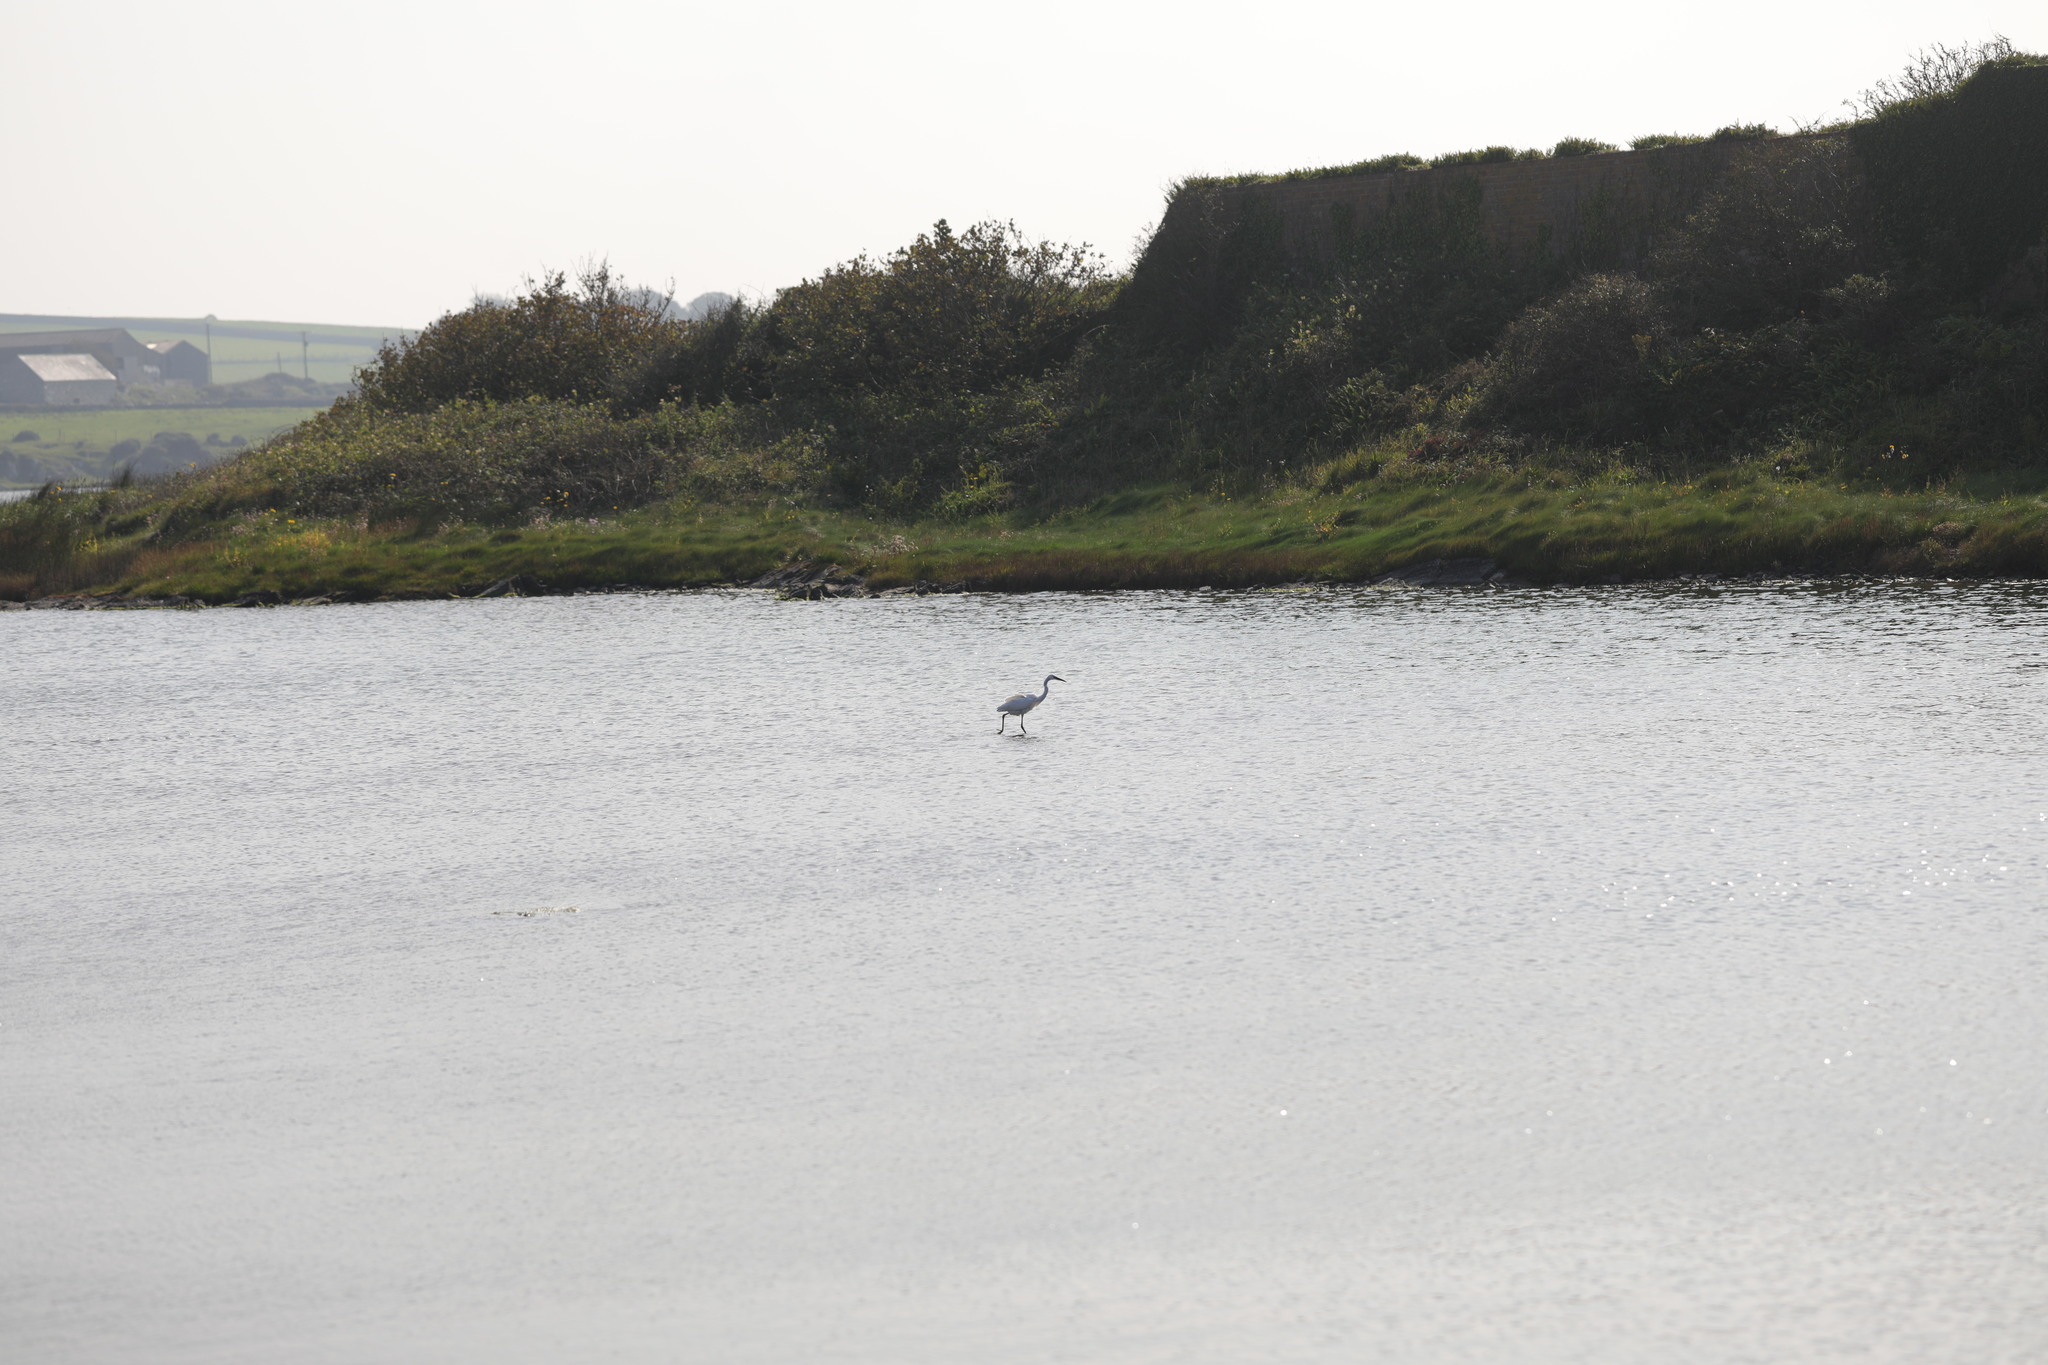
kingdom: Animalia
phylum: Chordata
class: Aves
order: Pelecaniformes
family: Ardeidae
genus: Egretta
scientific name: Egretta garzetta
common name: Little egret
